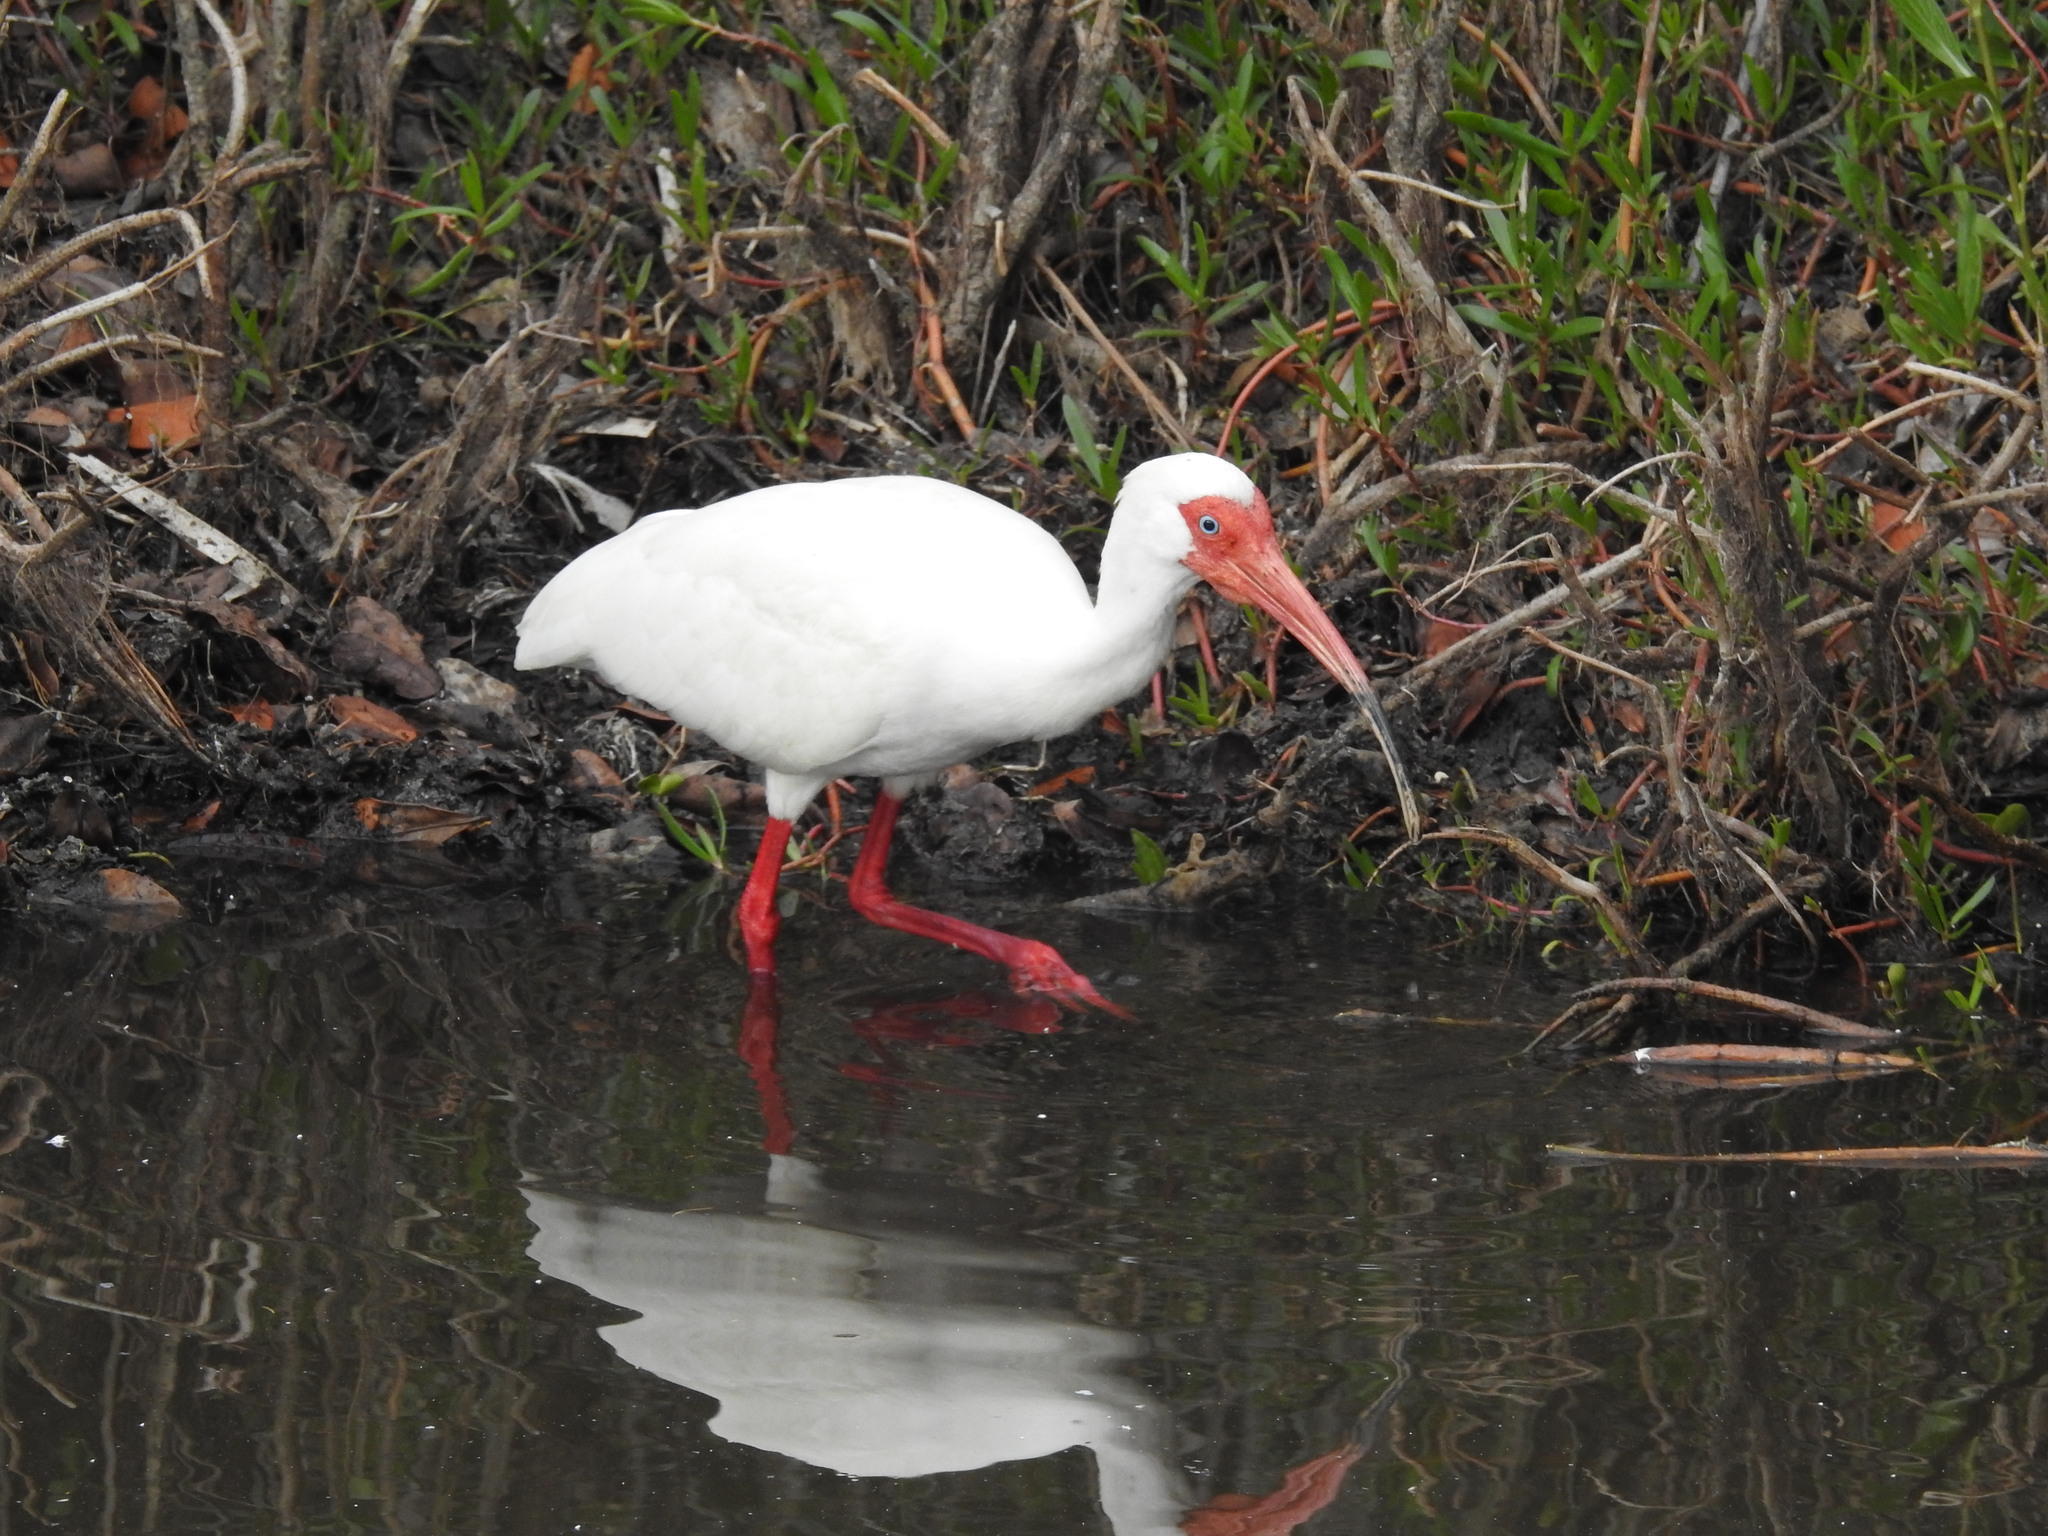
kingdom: Animalia
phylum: Chordata
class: Aves
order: Pelecaniformes
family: Threskiornithidae
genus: Eudocimus
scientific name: Eudocimus albus
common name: White ibis
